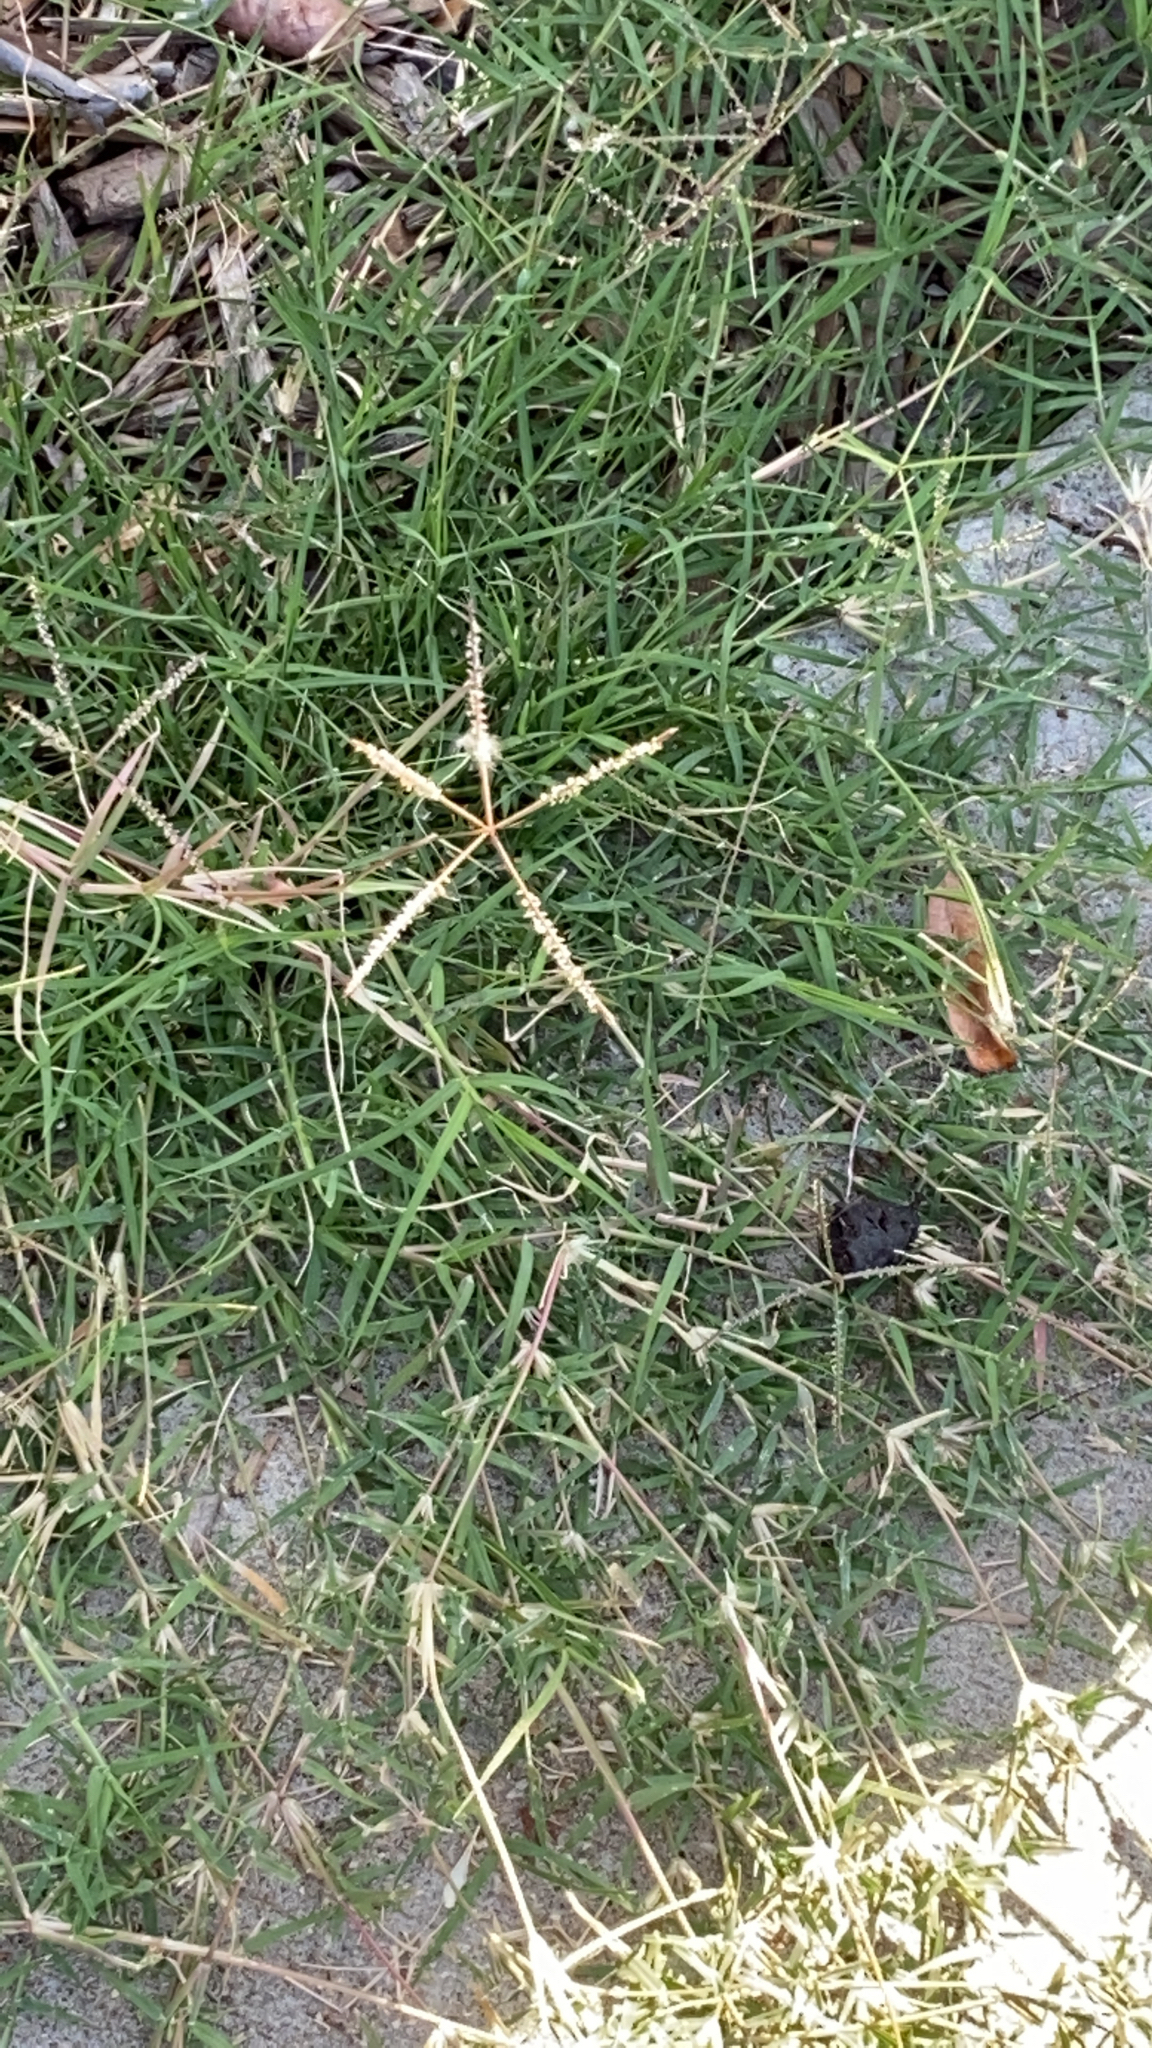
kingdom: Plantae
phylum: Tracheophyta
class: Liliopsida
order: Poales
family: Poaceae
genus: Cynodon
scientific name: Cynodon dactylon
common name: Bermuda grass
